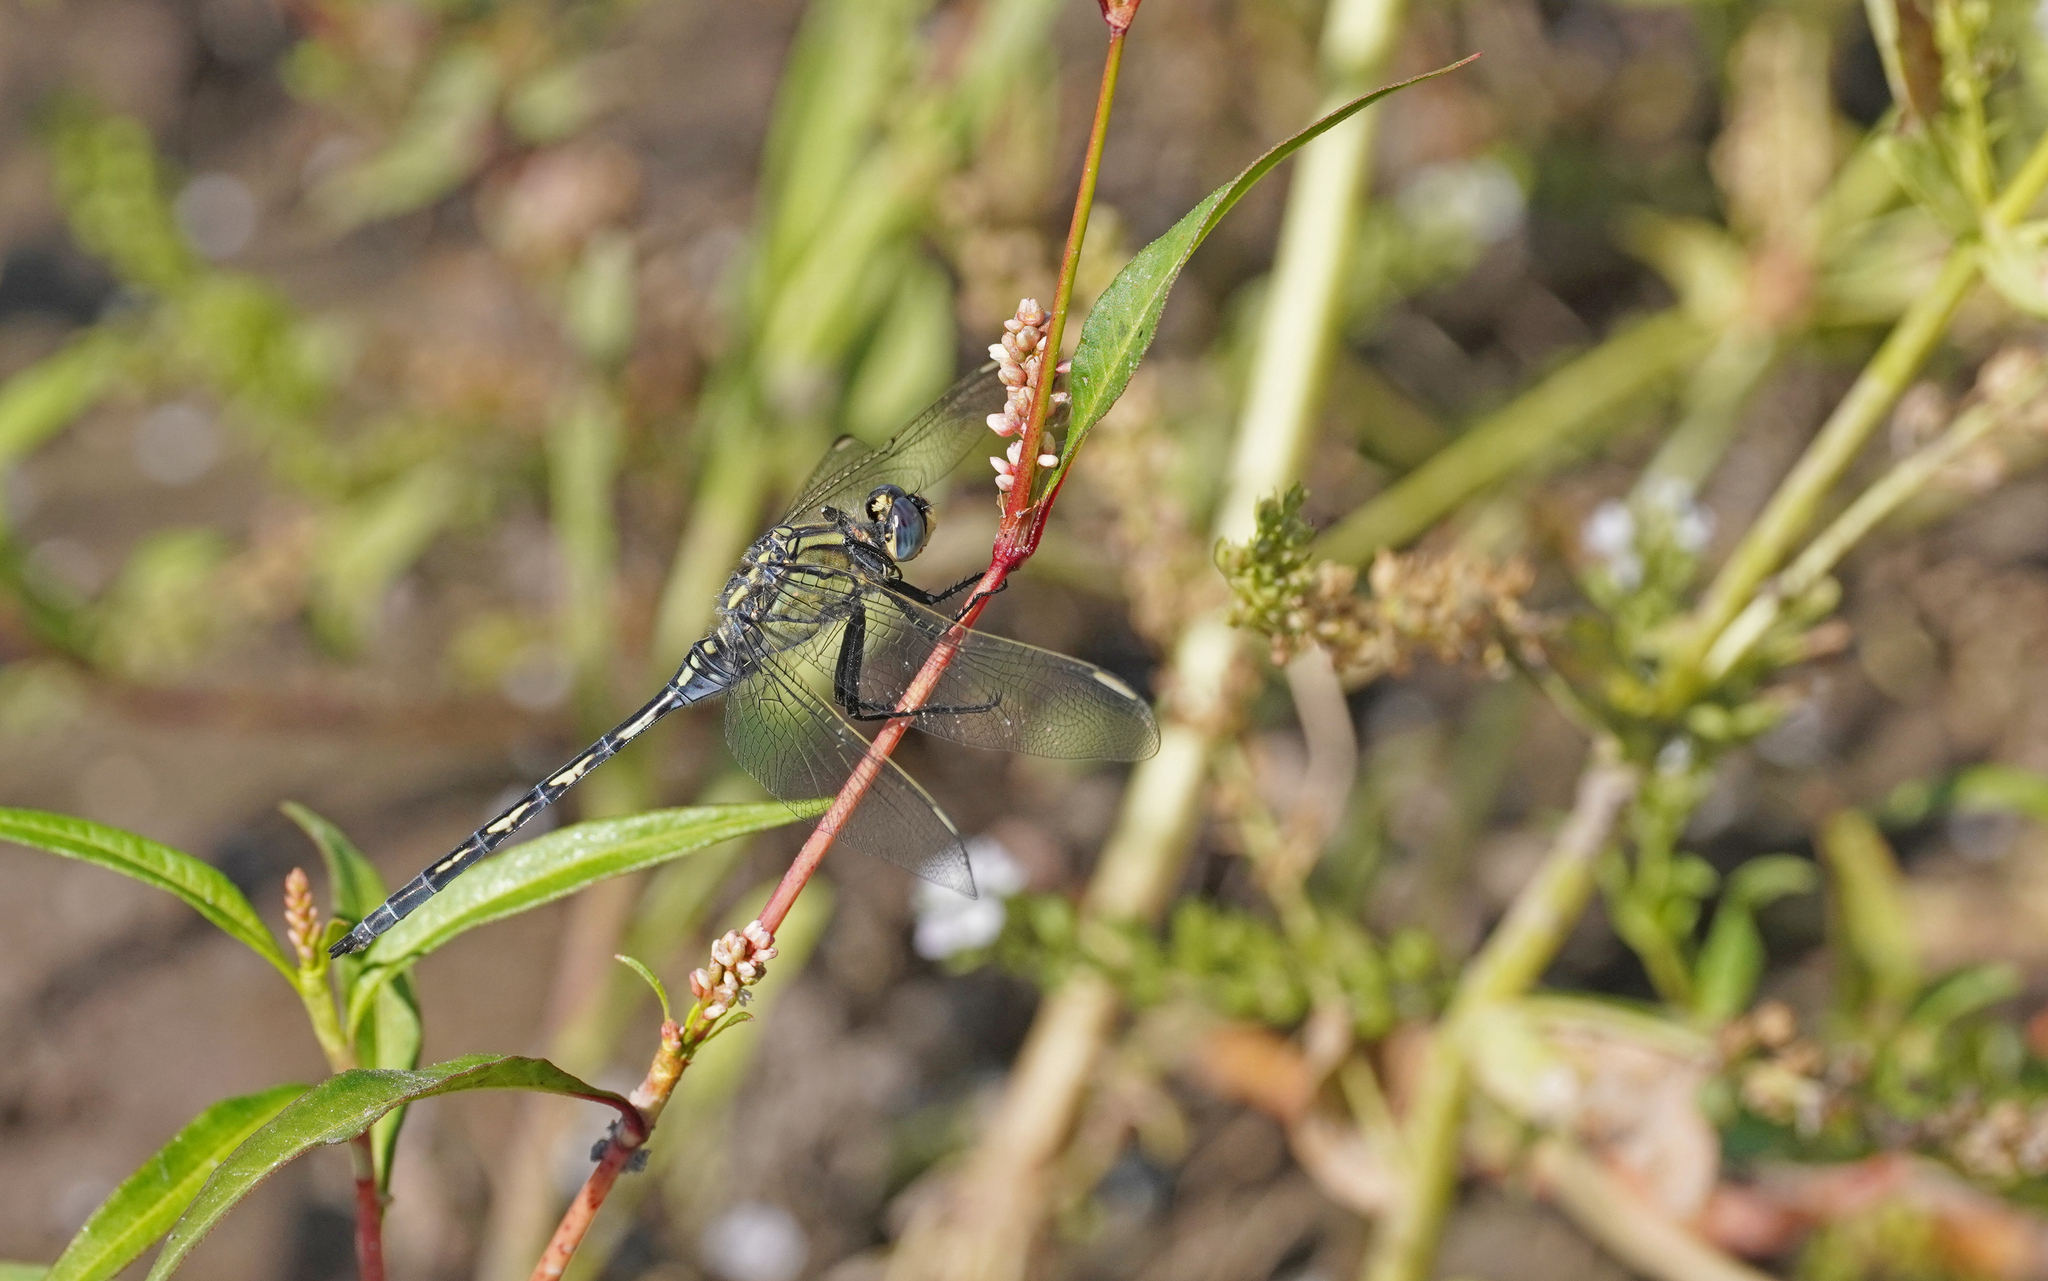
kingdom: Animalia
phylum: Arthropoda
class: Insecta
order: Odonata
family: Libellulidae
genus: Orthetrum
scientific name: Orthetrum trinacria
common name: Long skimmer
